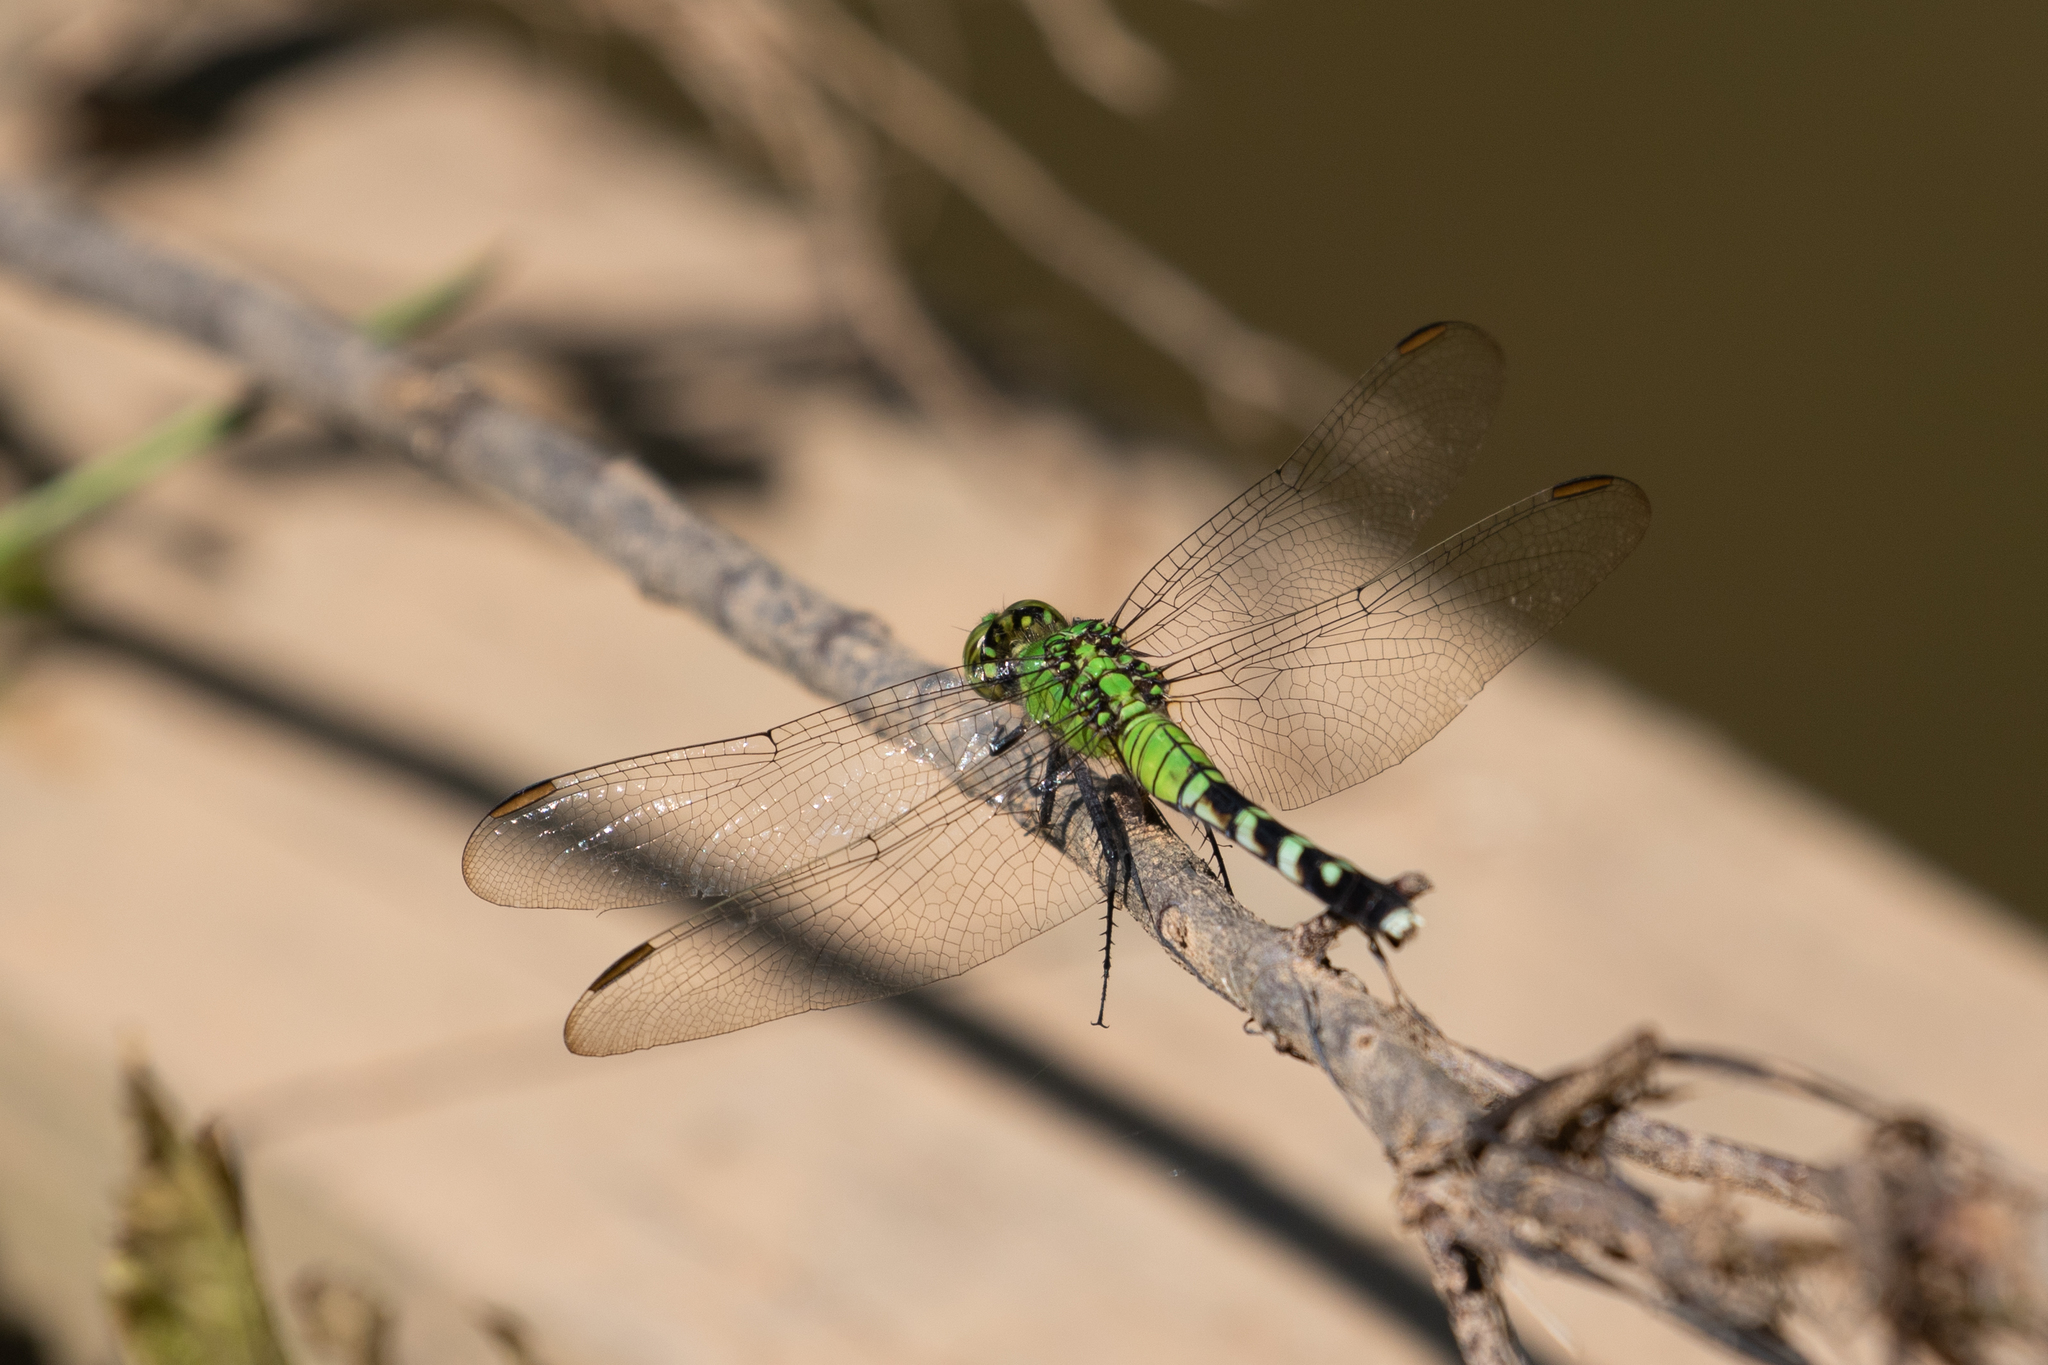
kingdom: Animalia
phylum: Arthropoda
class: Insecta
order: Odonata
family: Libellulidae
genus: Erythemis
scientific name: Erythemis simplicicollis
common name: Eastern pondhawk
